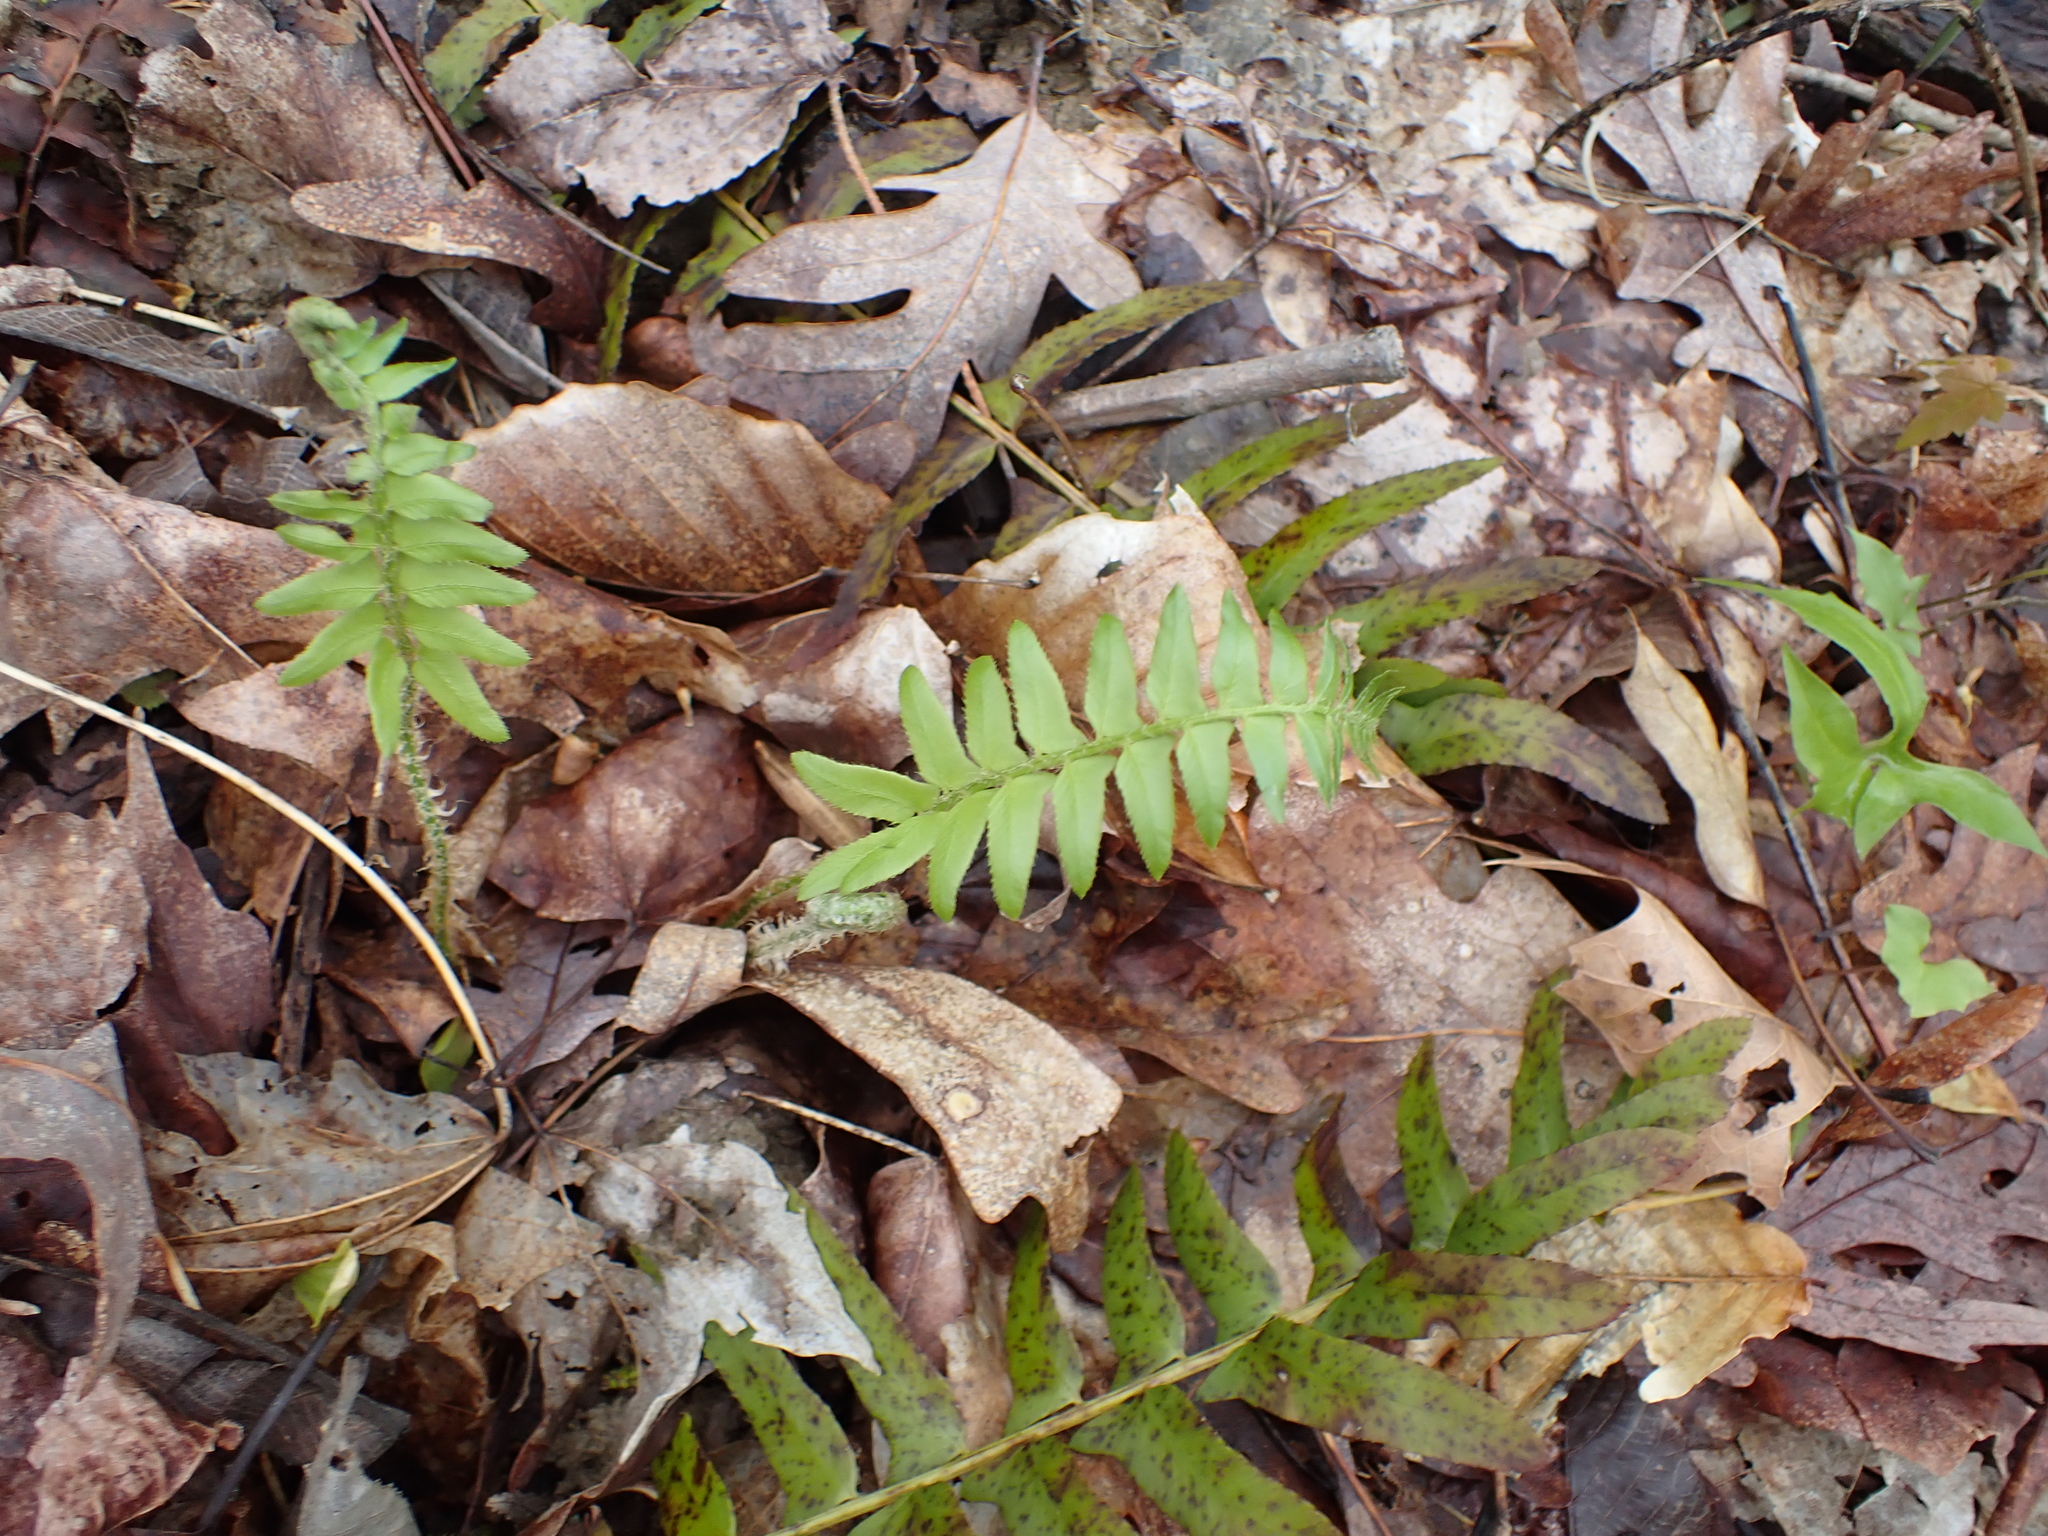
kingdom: Plantae
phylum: Tracheophyta
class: Polypodiopsida
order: Polypodiales
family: Dryopteridaceae
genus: Polystichum
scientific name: Polystichum acrostichoides
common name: Christmas fern
